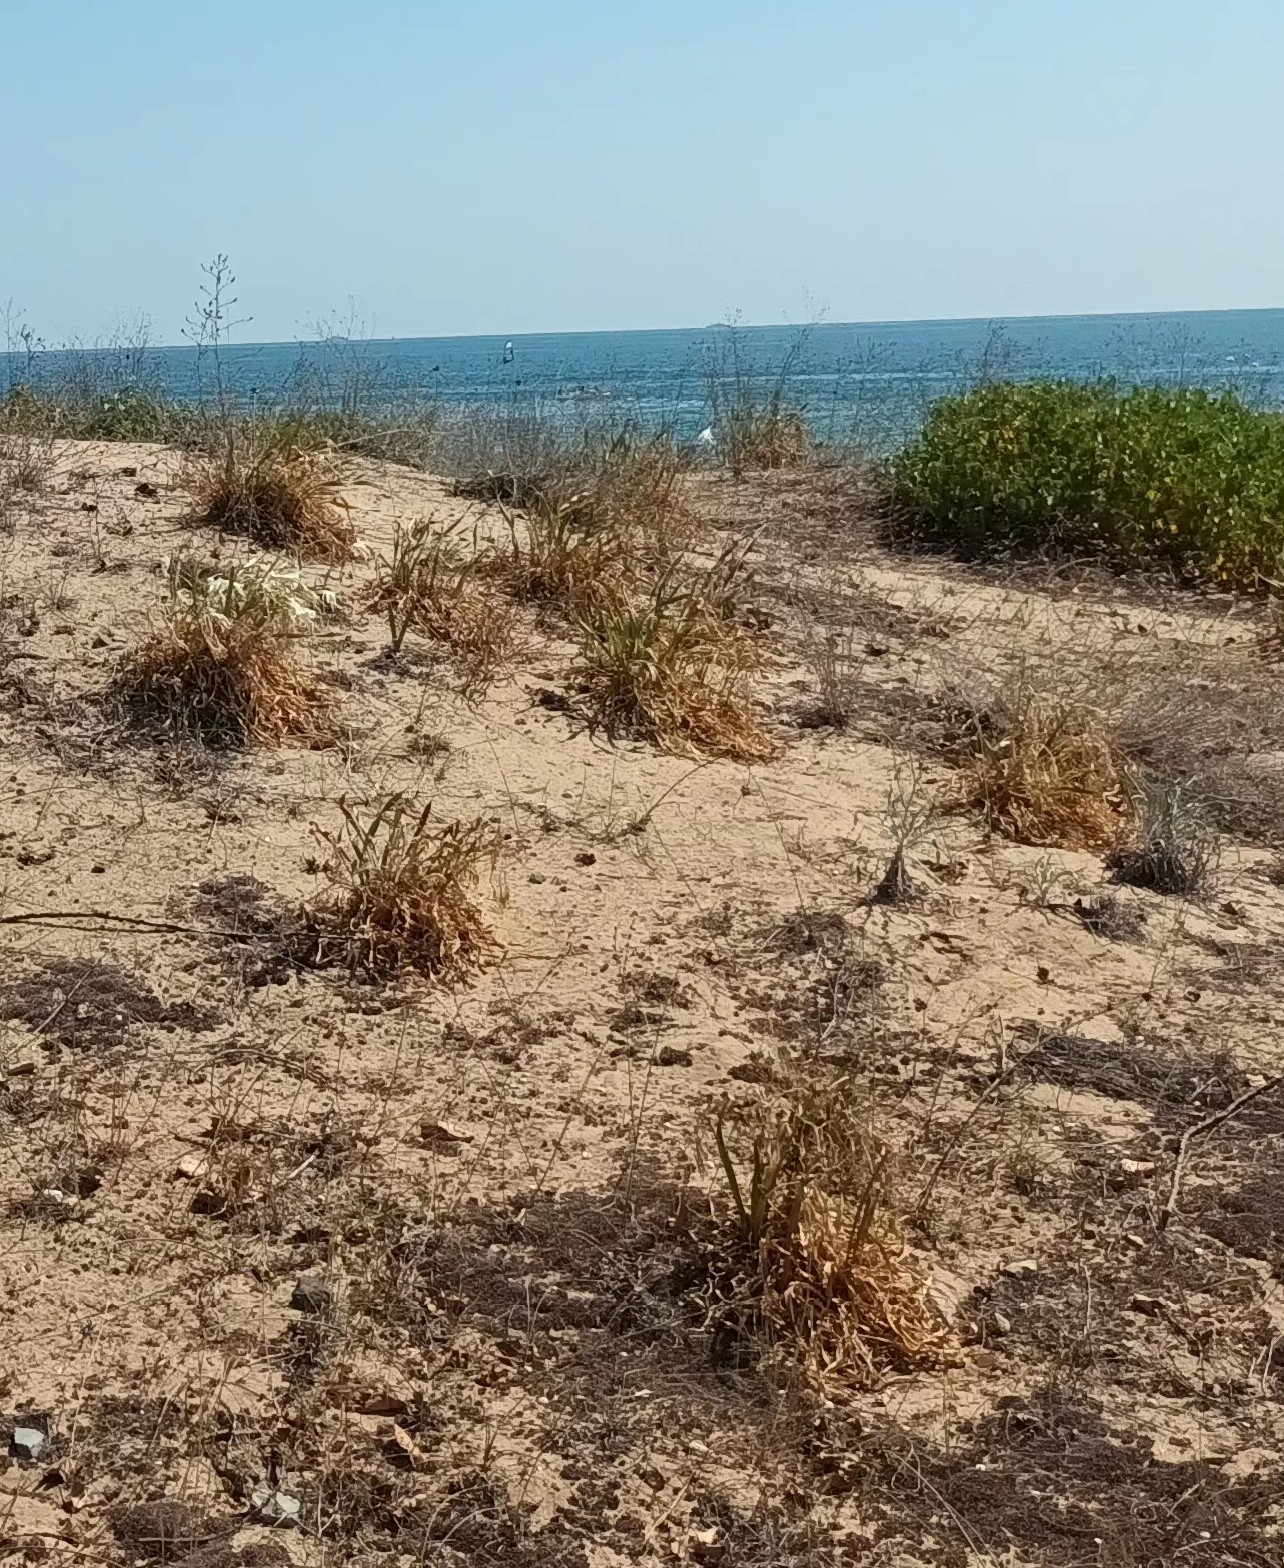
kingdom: Plantae
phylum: Tracheophyta
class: Liliopsida
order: Asparagales
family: Amaryllidaceae
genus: Pancratium
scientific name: Pancratium maritimum
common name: Sea-daffodil
